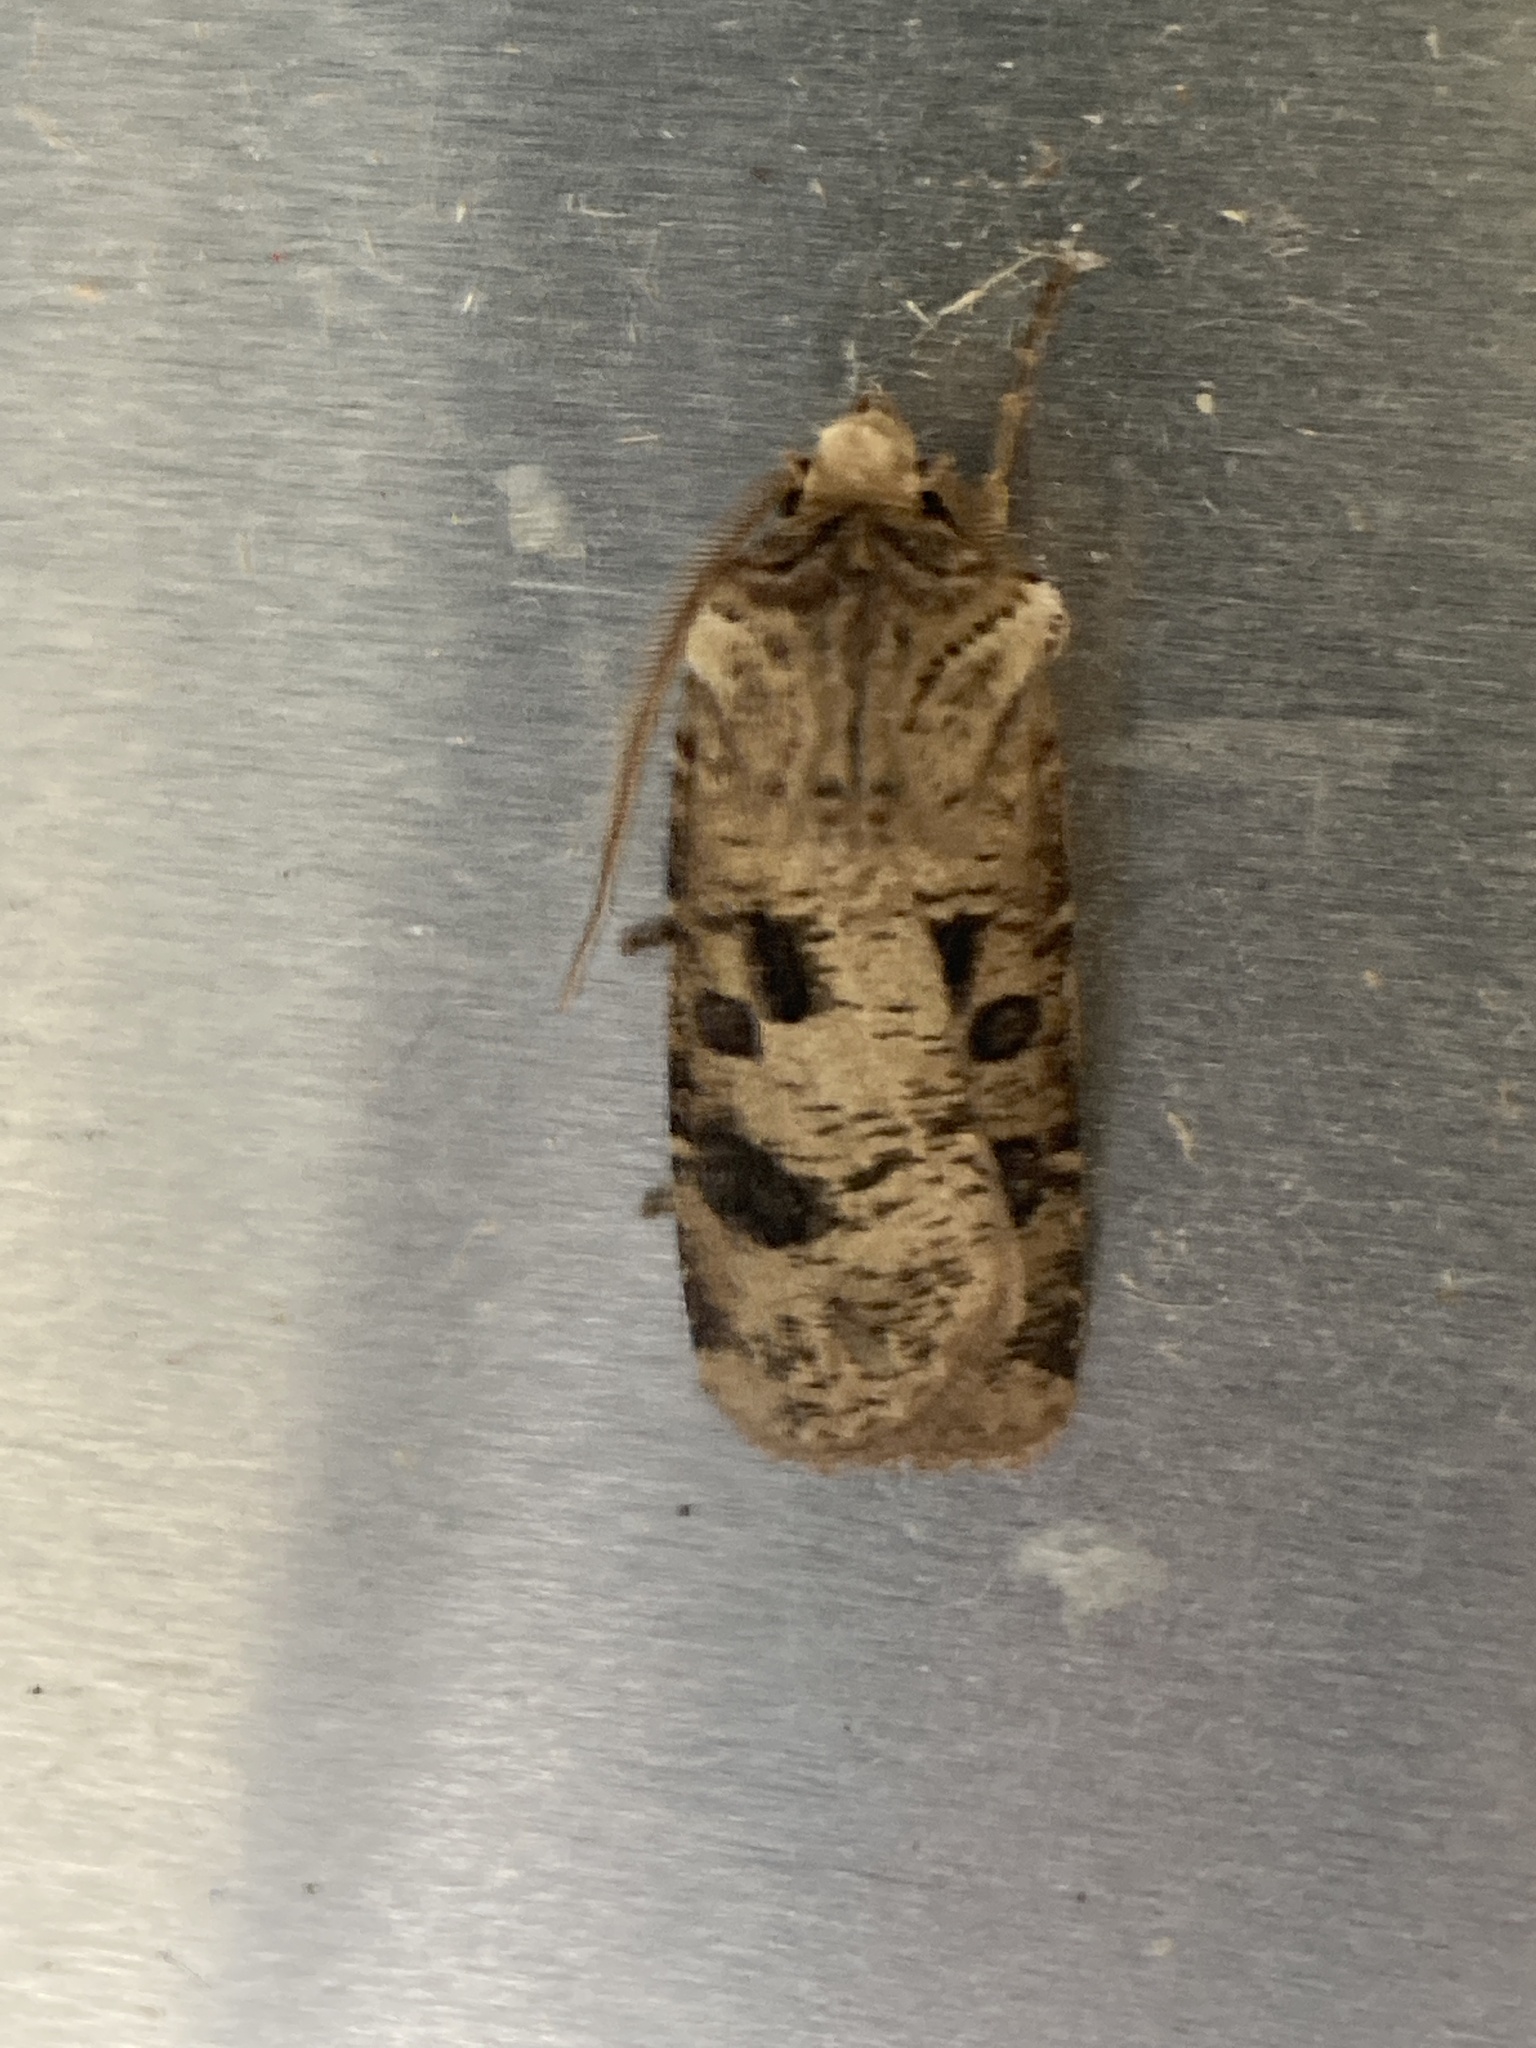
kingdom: Animalia
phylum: Arthropoda
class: Insecta
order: Lepidoptera
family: Noctuidae
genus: Agrotis
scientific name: Agrotis clavis
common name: Heart and club
